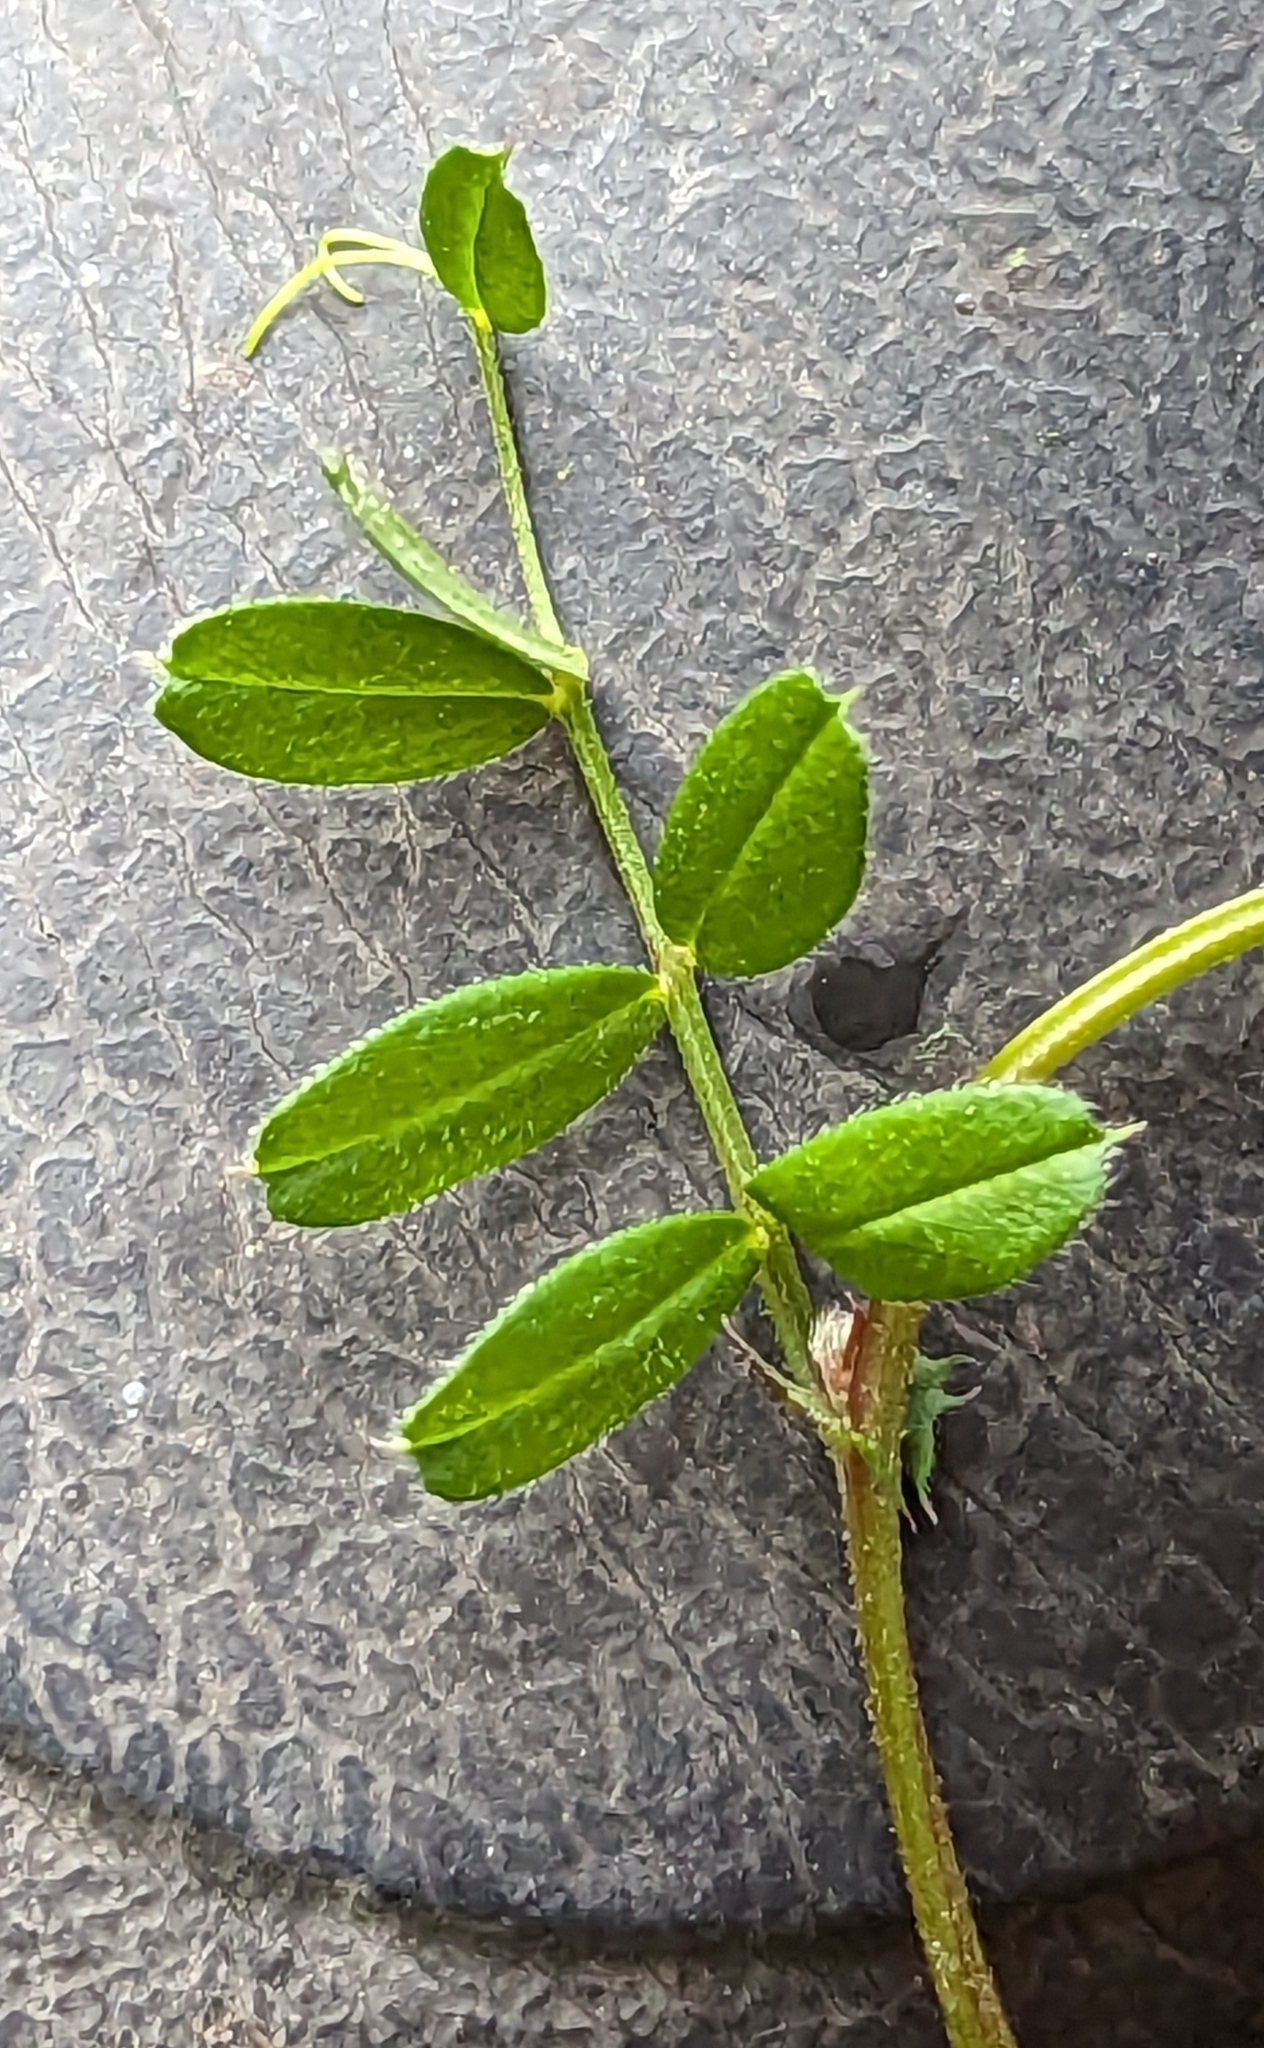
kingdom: Plantae
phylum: Tracheophyta
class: Magnoliopsida
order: Fabales
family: Fabaceae
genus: Vicia
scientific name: Vicia sativa
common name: Garden vetch
